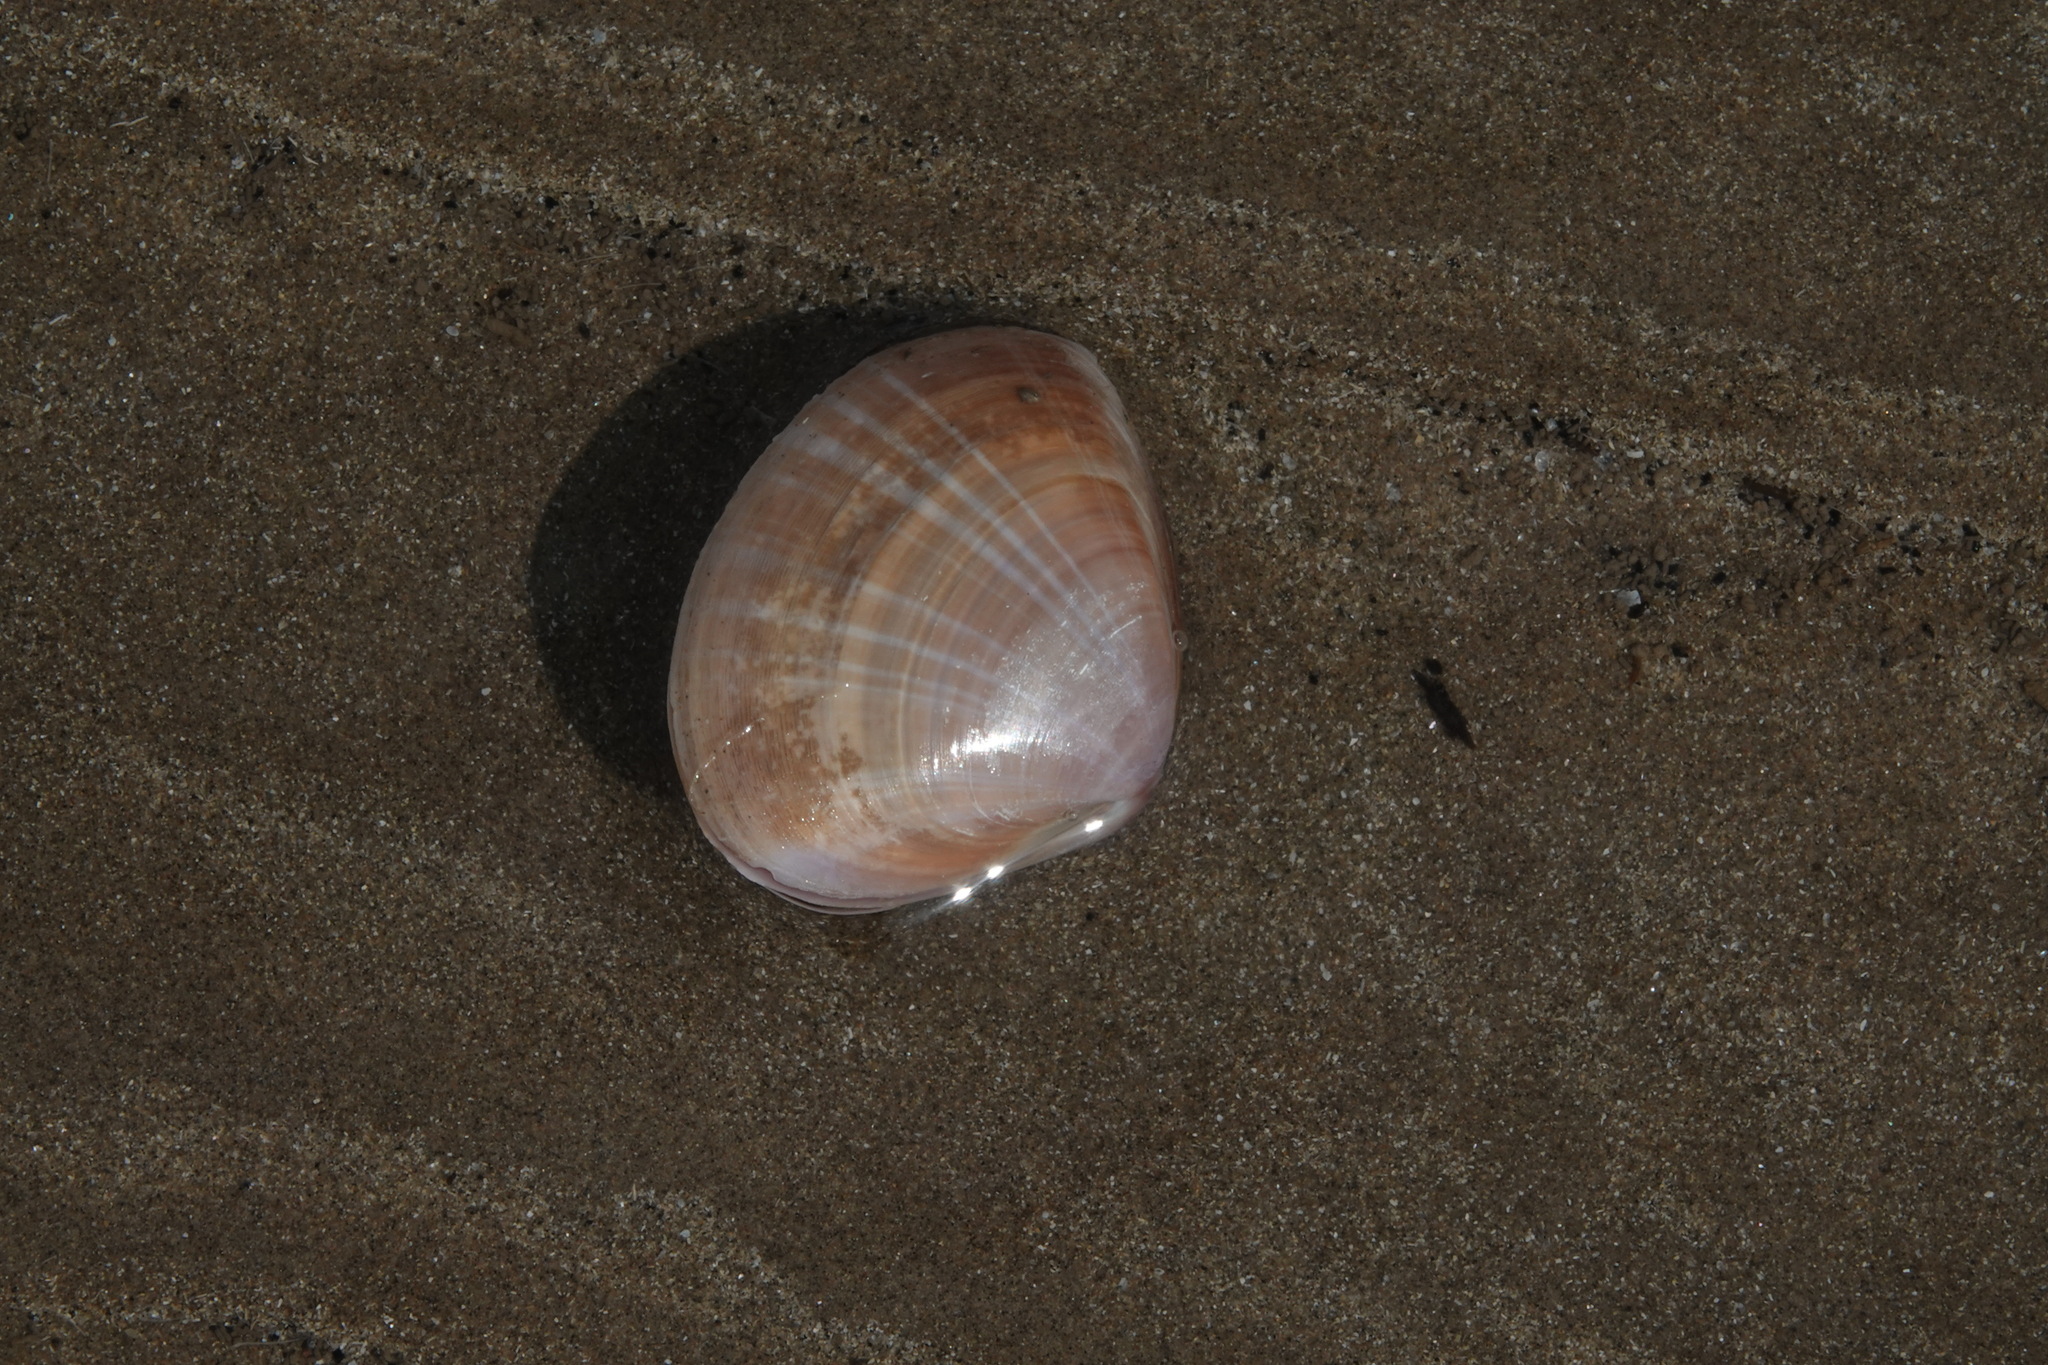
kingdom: Animalia
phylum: Mollusca
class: Bivalvia
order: Venerida
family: Mactridae
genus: Mactra
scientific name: Mactra stultorum
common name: Rayed trough shell
